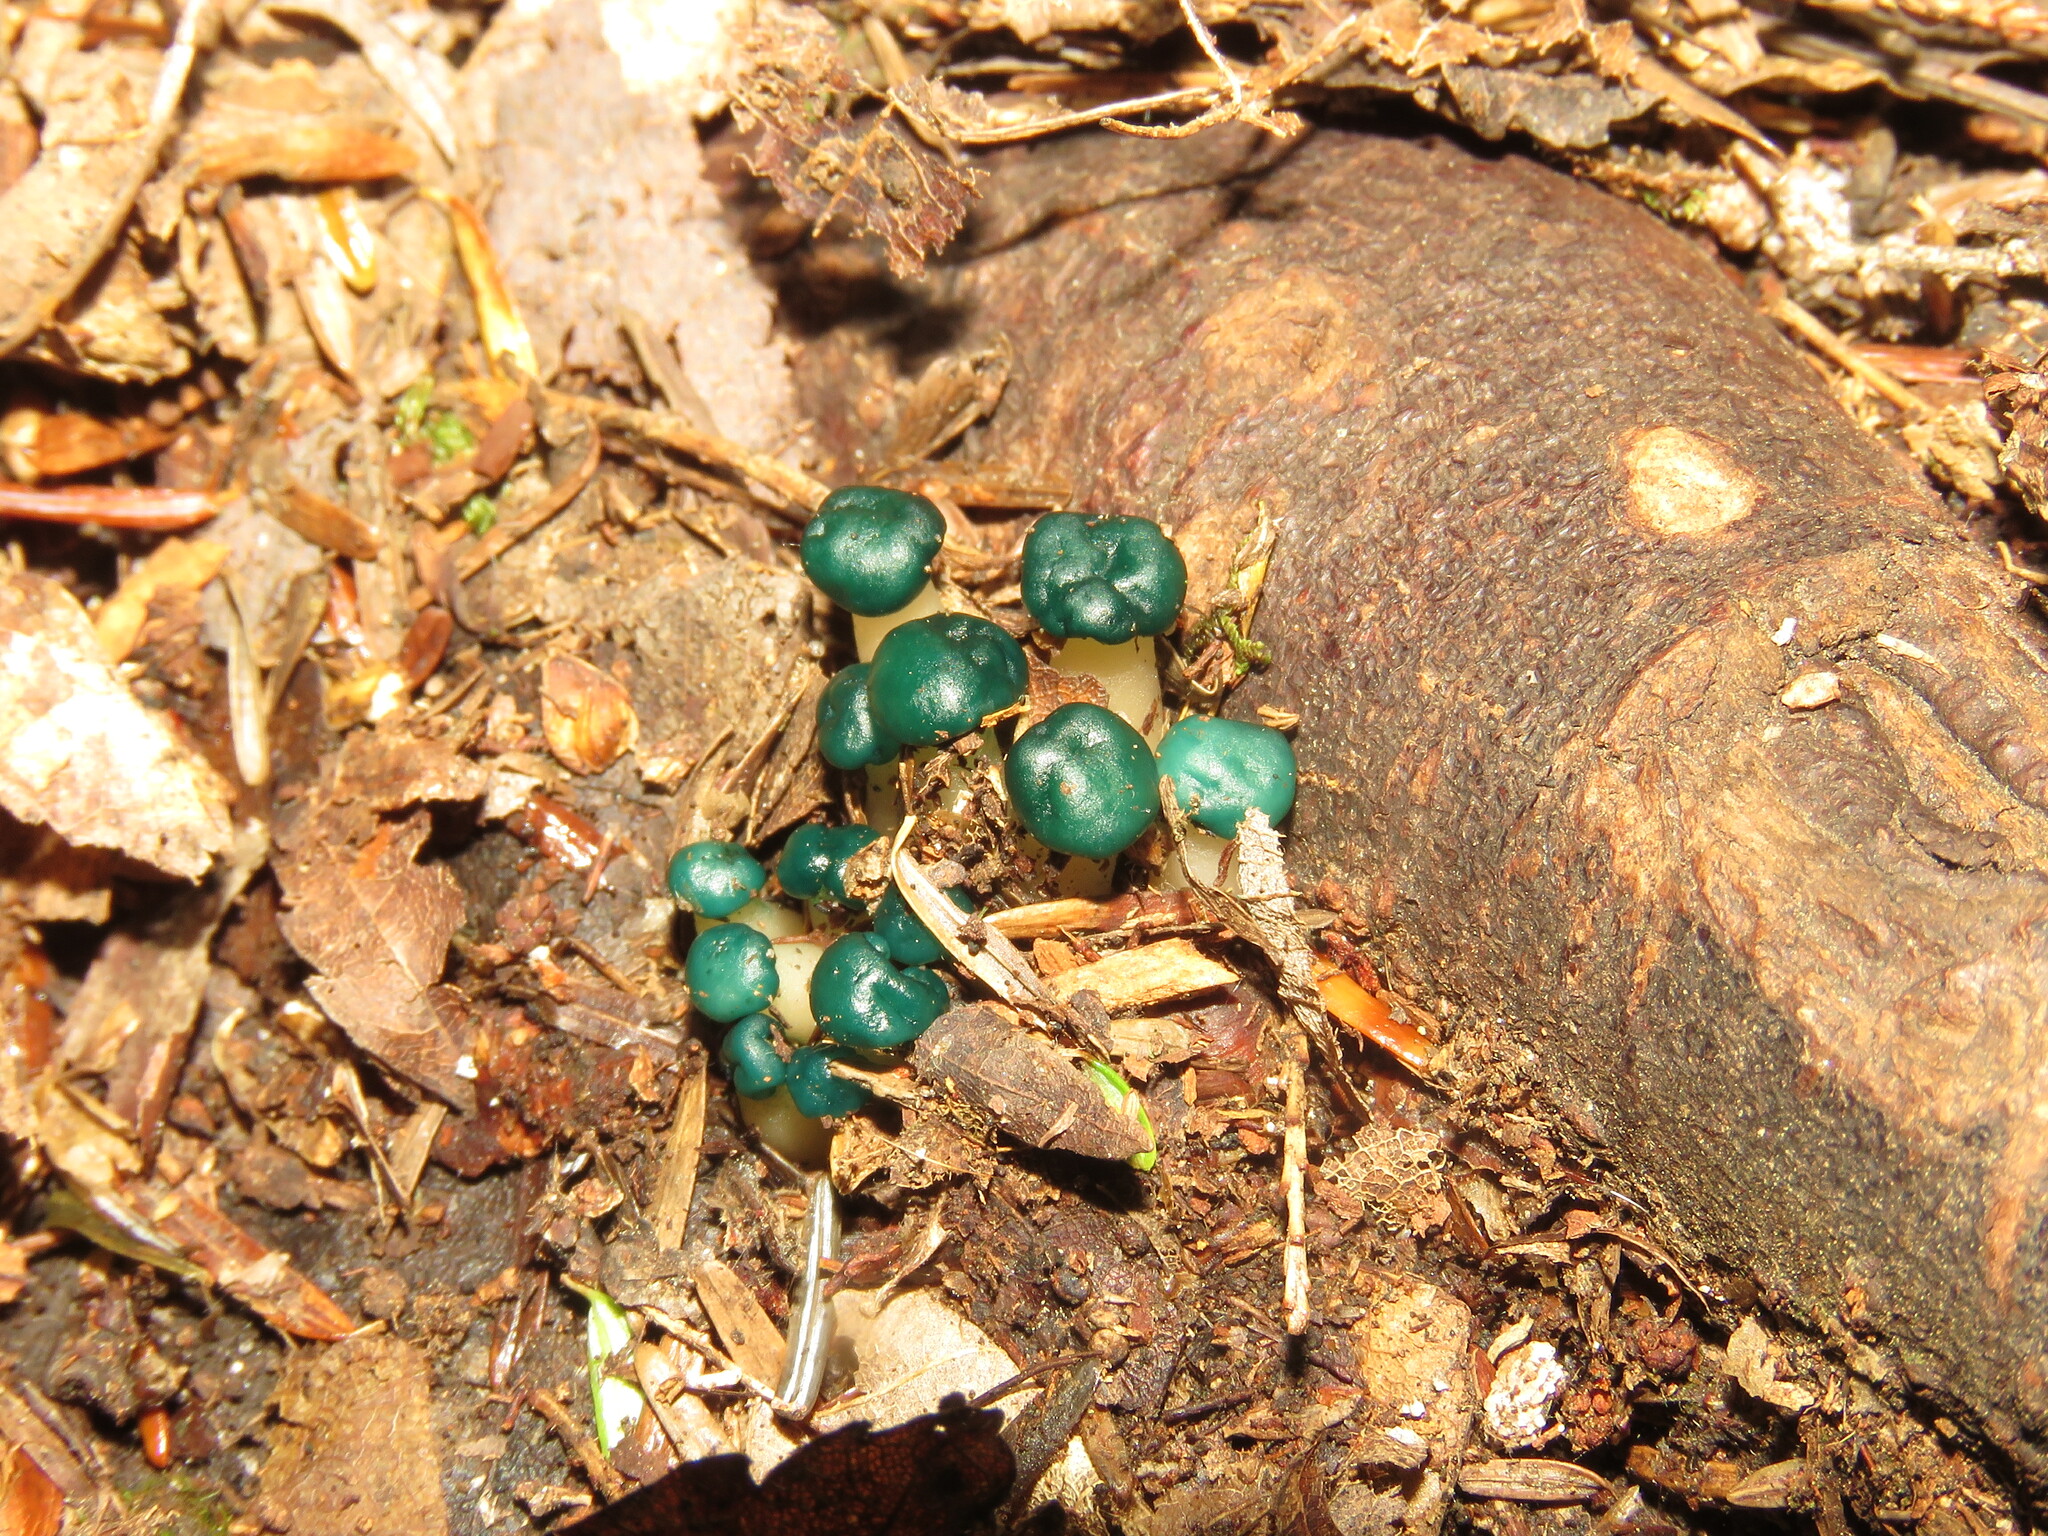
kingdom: Fungi
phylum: Ascomycota
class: Leotiomycetes
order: Leotiales
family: Leotiaceae
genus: Leotia
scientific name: Leotia lubrica
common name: Jellybaby
